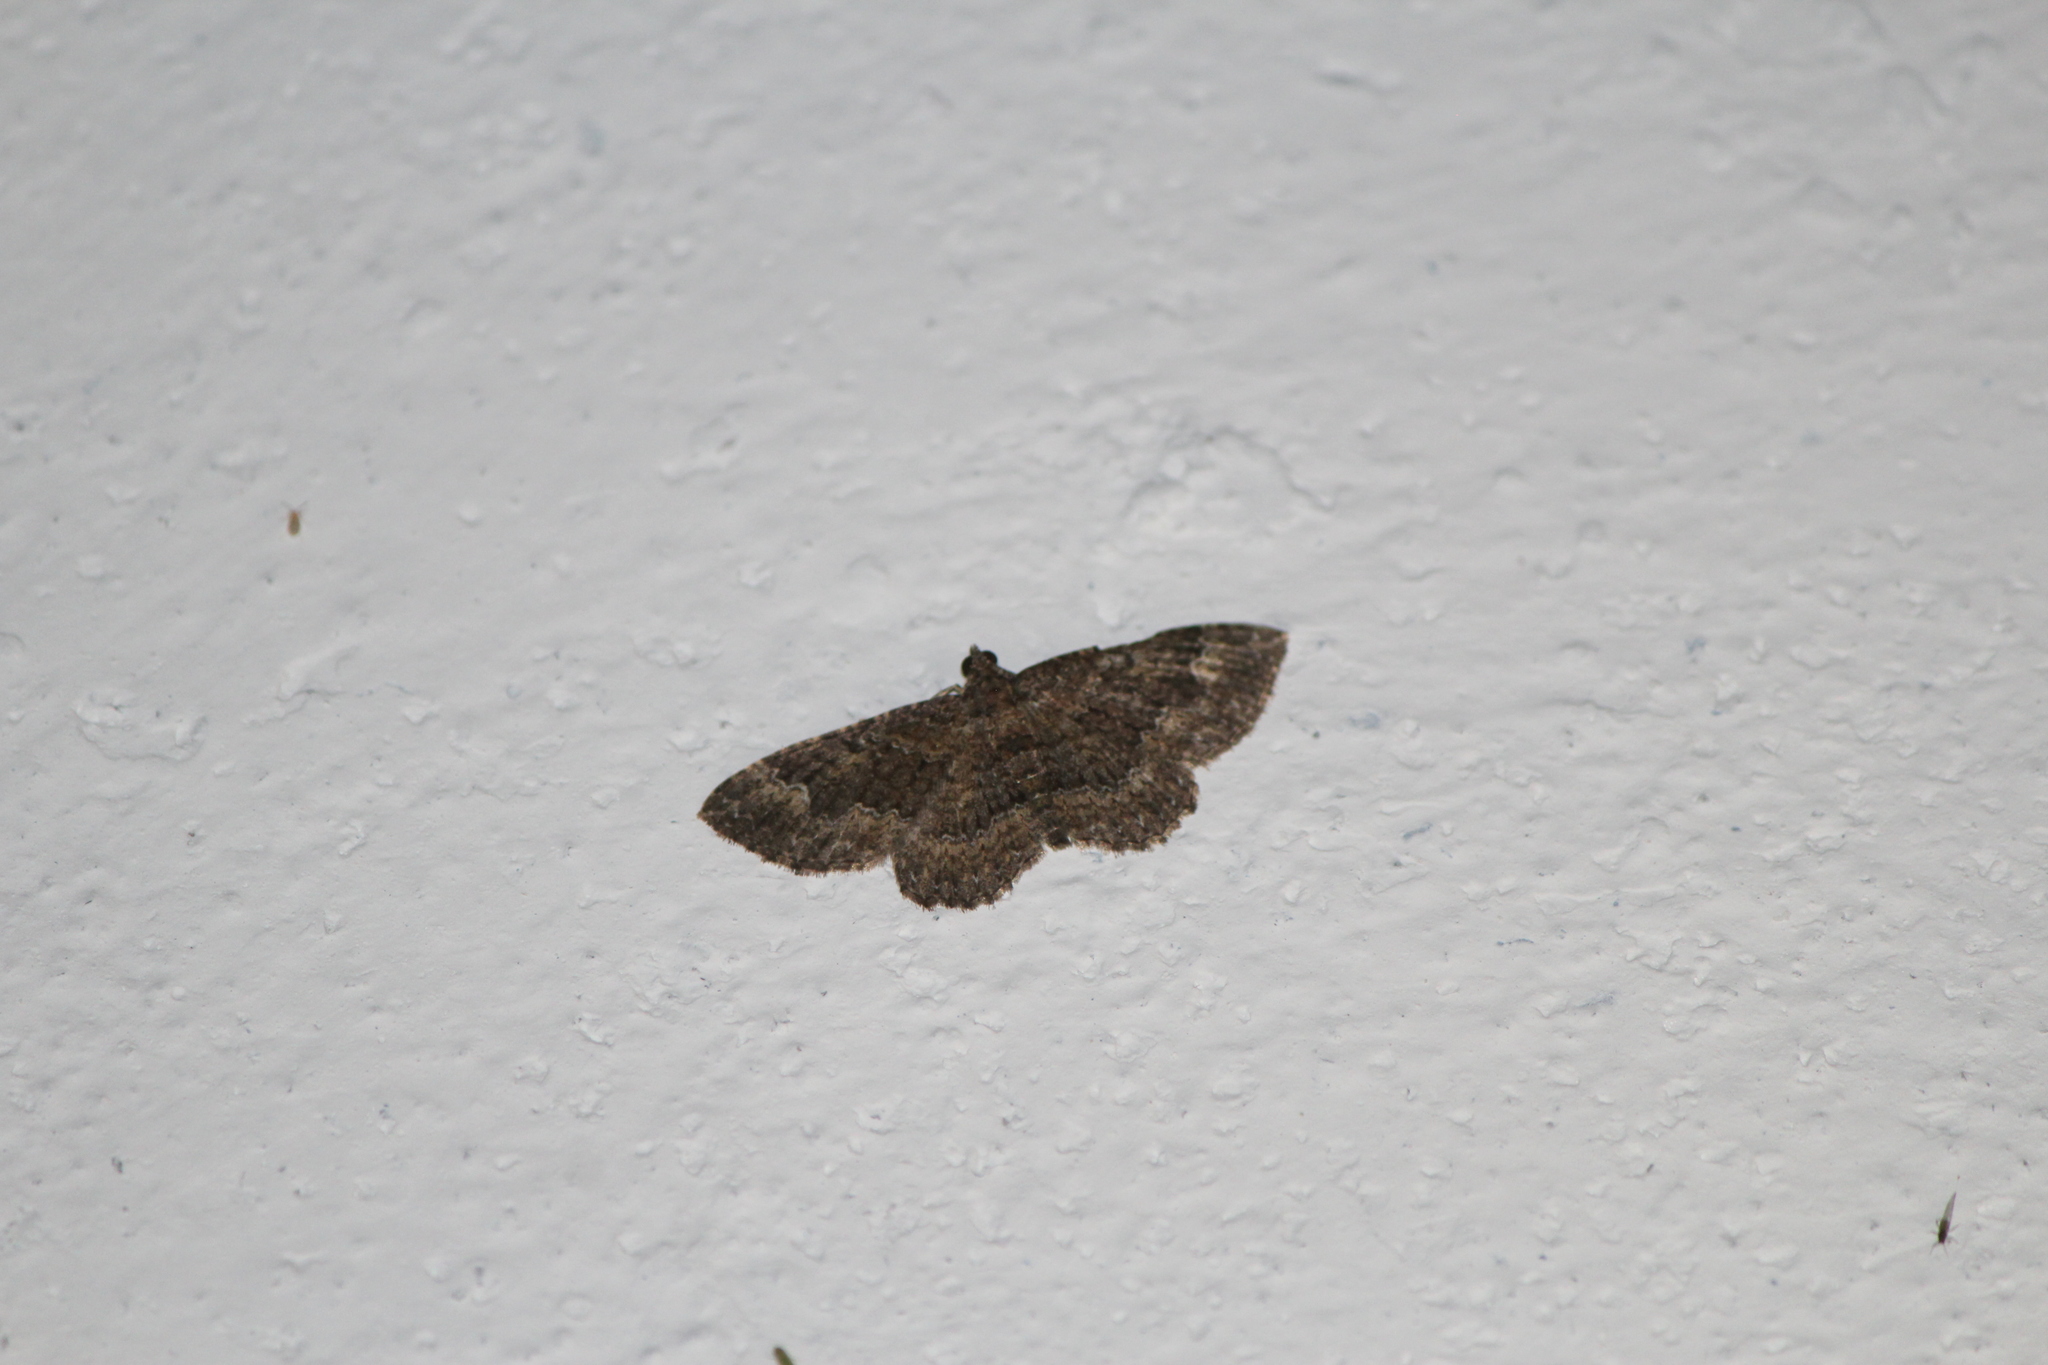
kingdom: Animalia
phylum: Arthropoda
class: Insecta
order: Lepidoptera
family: Geometridae
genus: Disclisioprocta
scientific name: Disclisioprocta stellata
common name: Somber carpet
